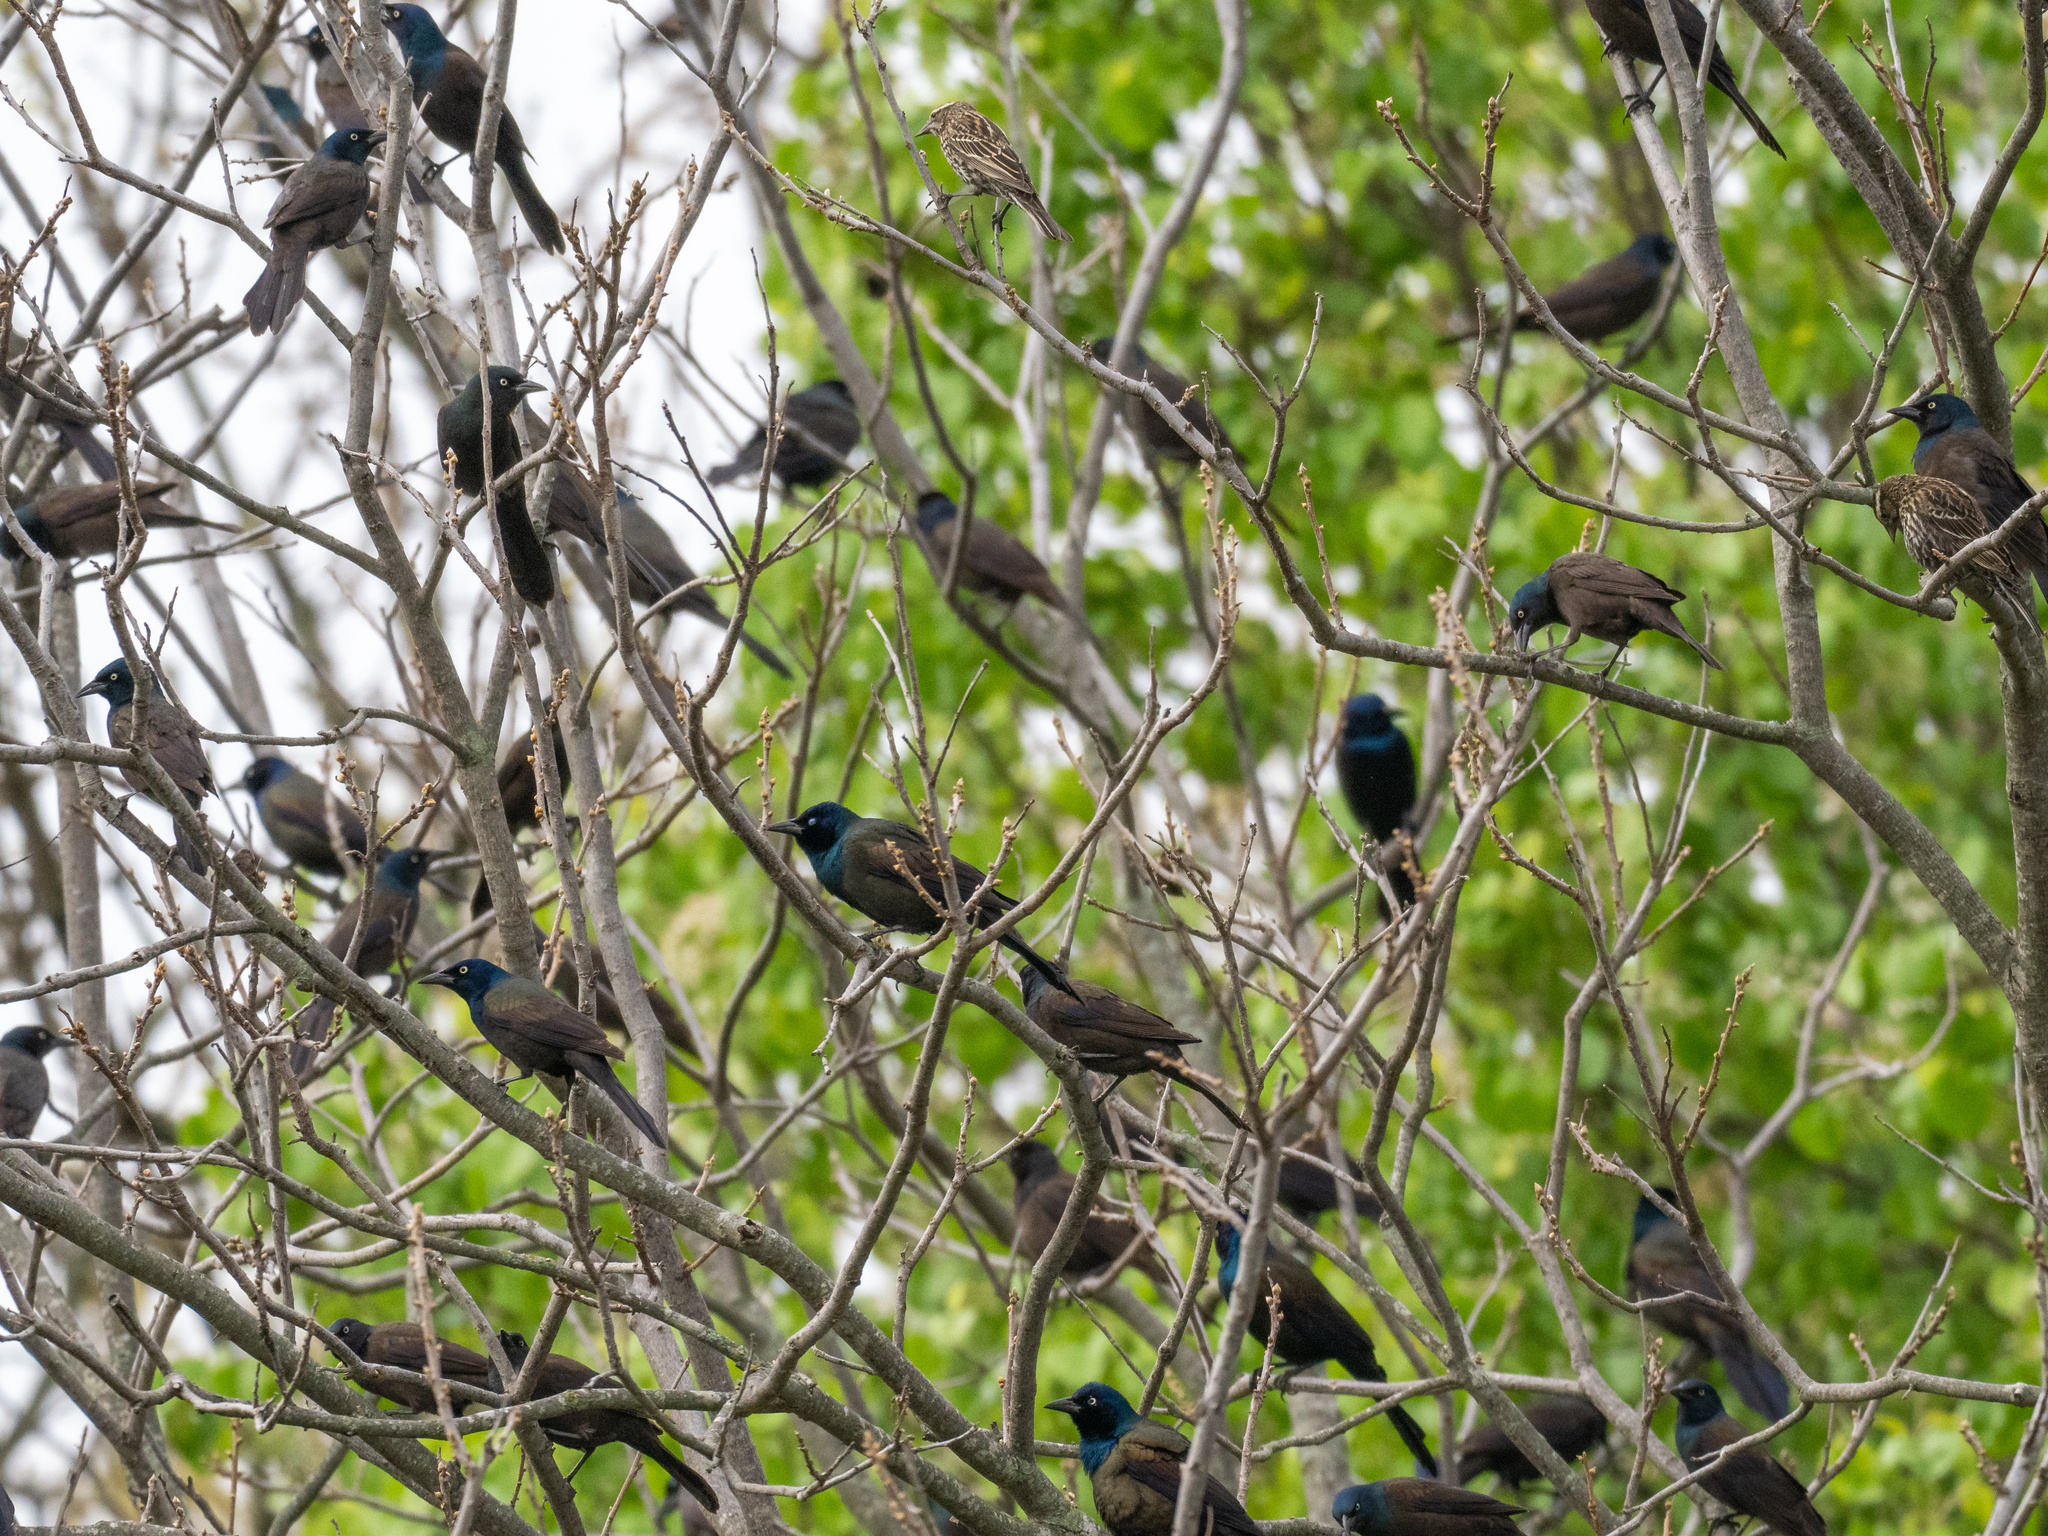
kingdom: Animalia
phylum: Chordata
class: Aves
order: Passeriformes
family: Icteridae
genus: Quiscalus
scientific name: Quiscalus quiscula
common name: Common grackle
